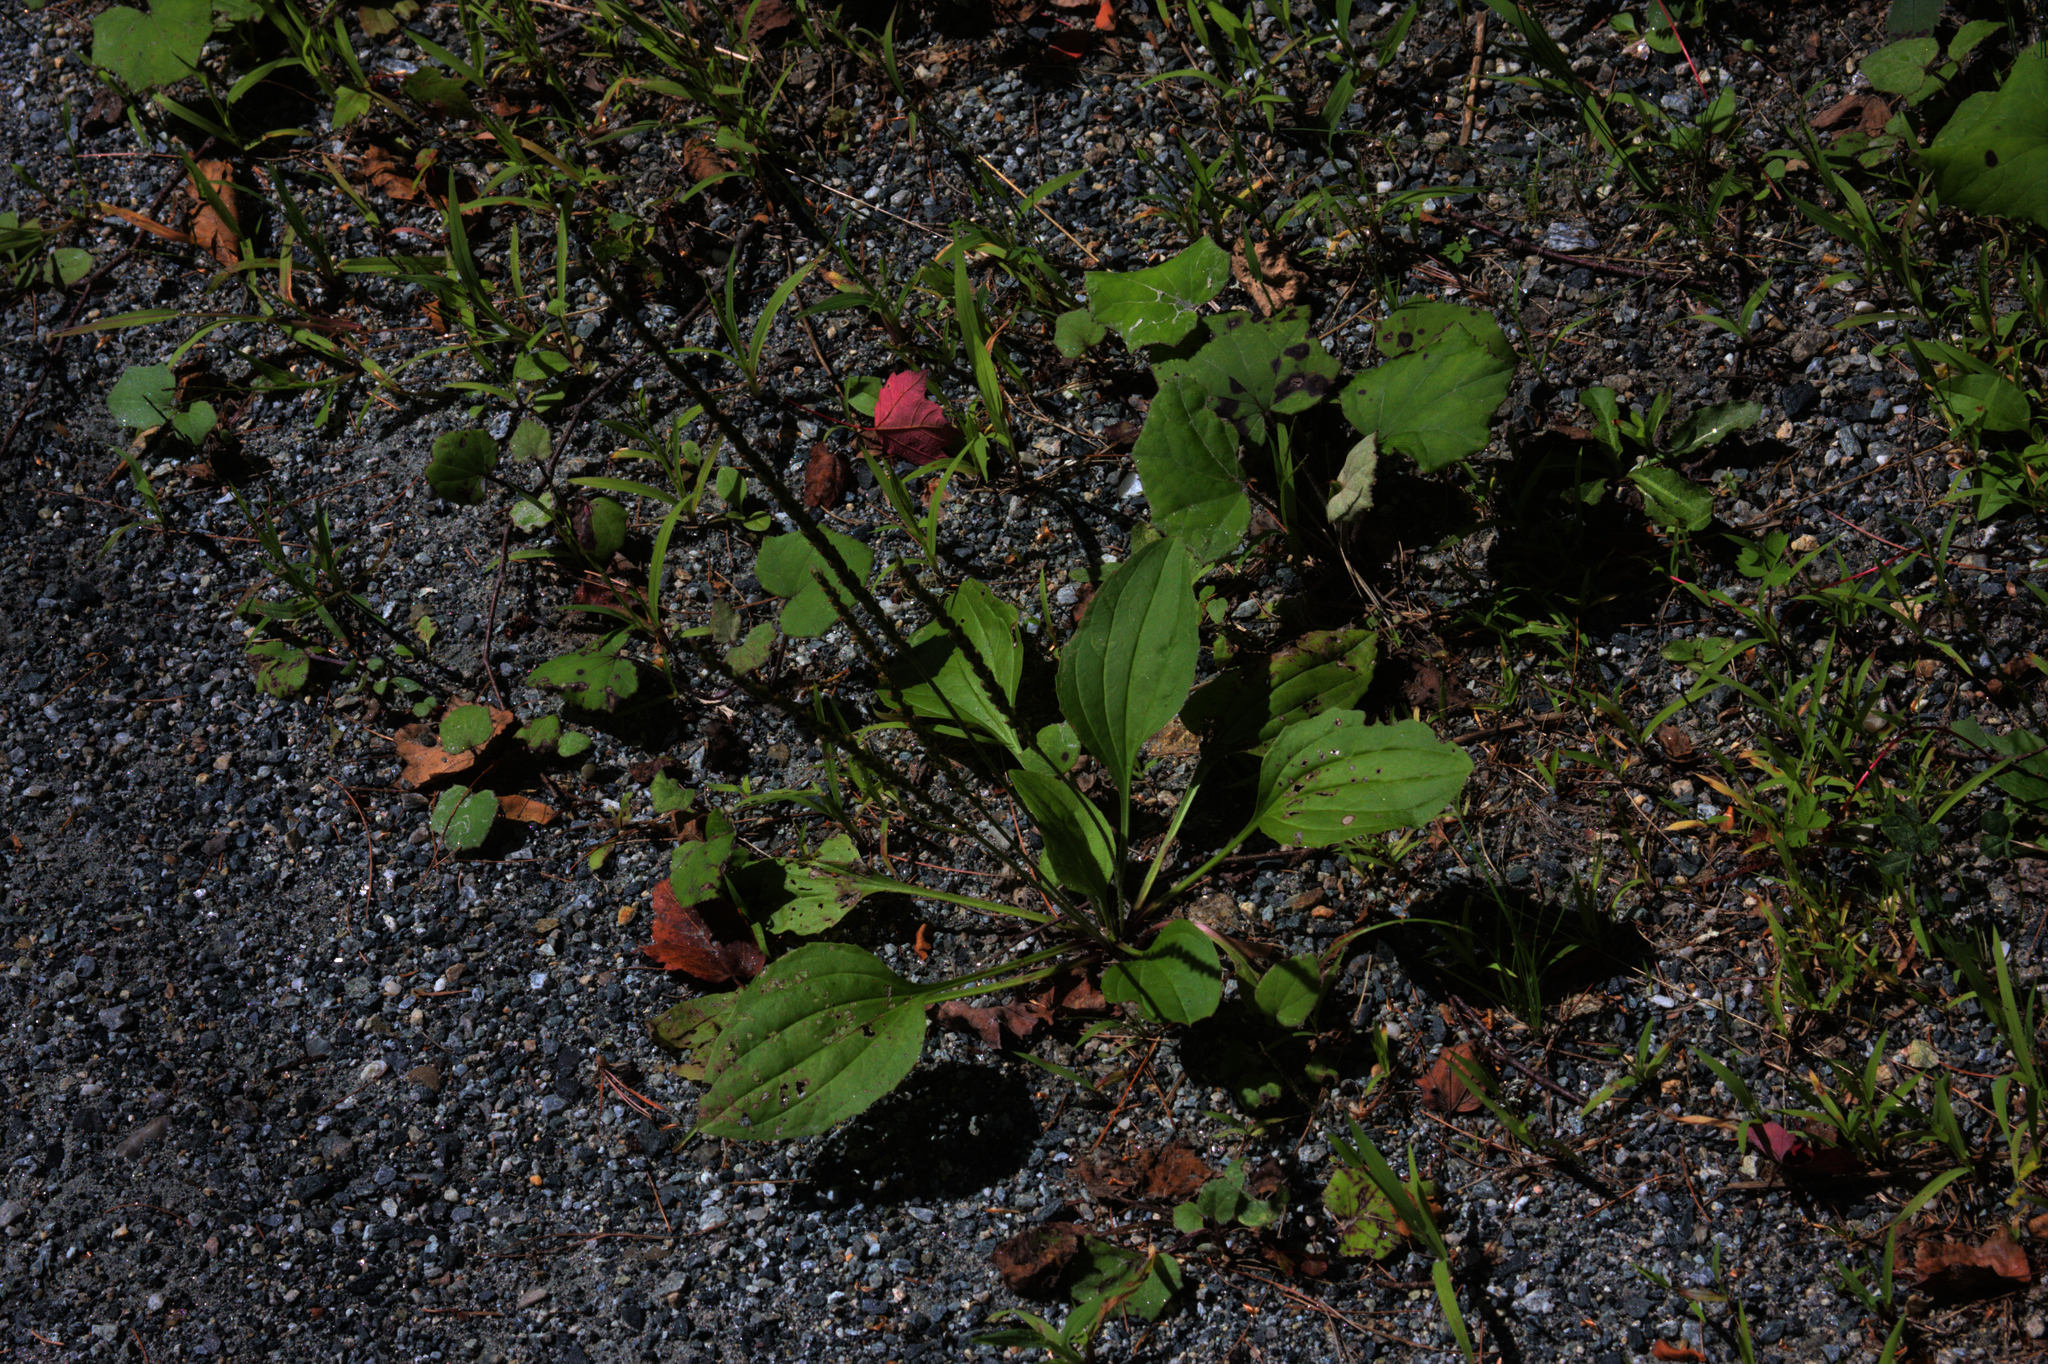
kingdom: Plantae
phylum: Tracheophyta
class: Magnoliopsida
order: Lamiales
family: Plantaginaceae
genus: Plantago
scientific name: Plantago major
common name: Common plantain
